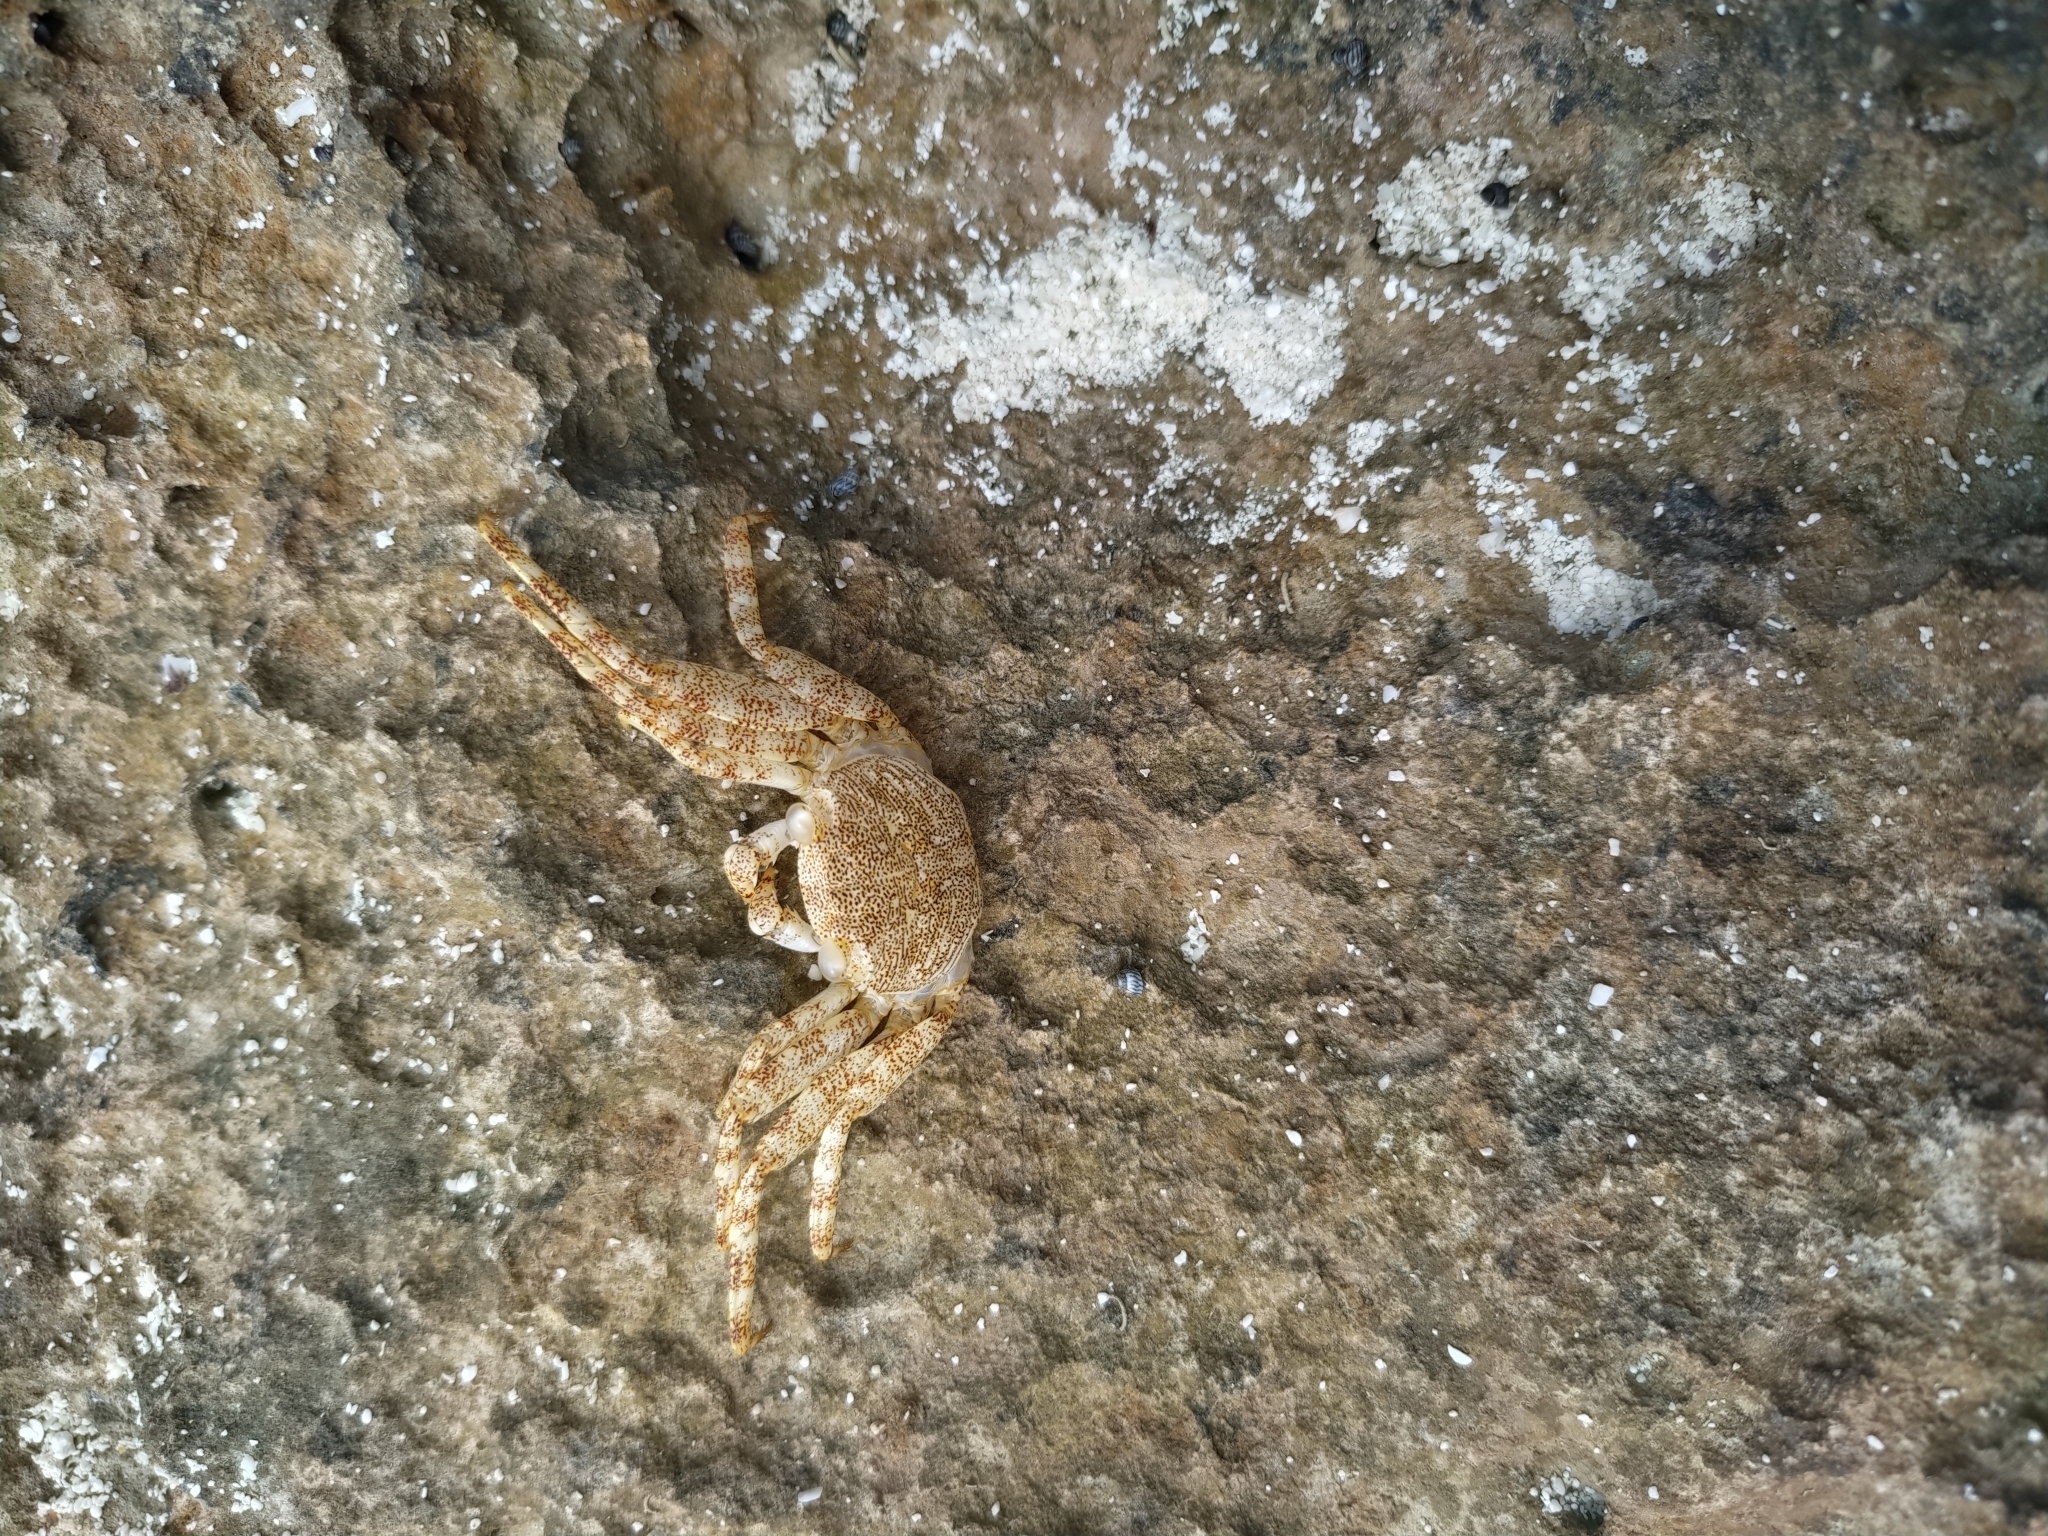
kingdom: Animalia
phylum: Arthropoda
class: Malacostraca
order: Decapoda
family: Grapsidae
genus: Grapsus
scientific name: Grapsus grapsus
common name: Sally lightfoot
